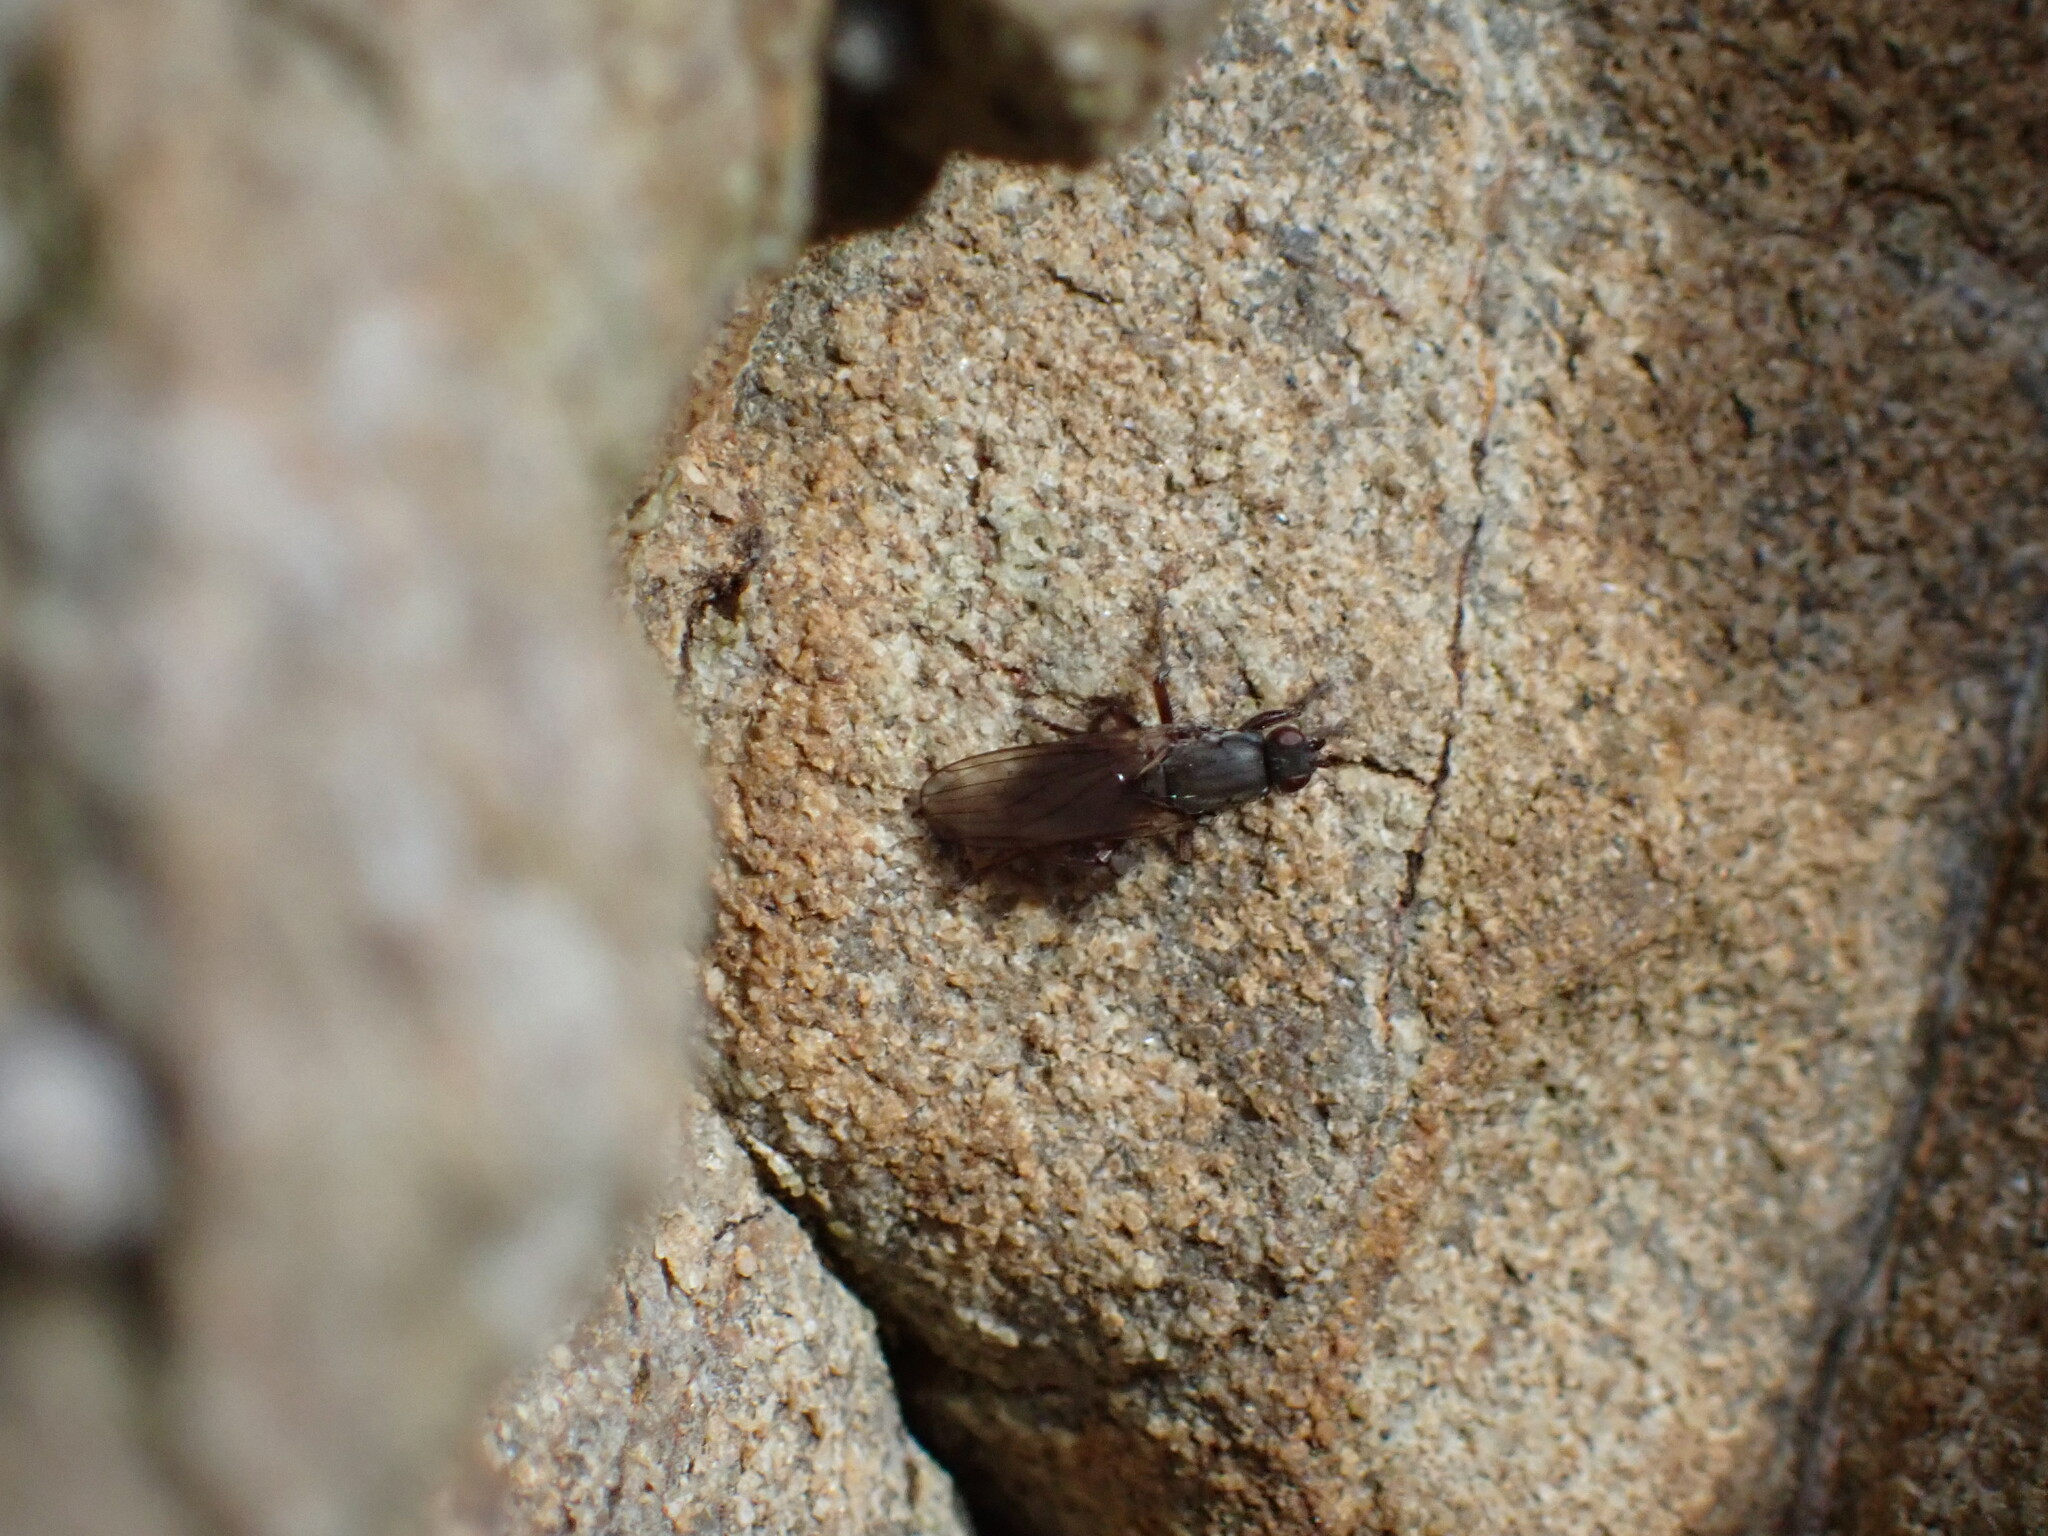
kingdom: Animalia
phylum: Arthropoda
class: Insecta
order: Diptera
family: Coelopidae
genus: Chaetocoelopa
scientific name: Chaetocoelopa littoralis
